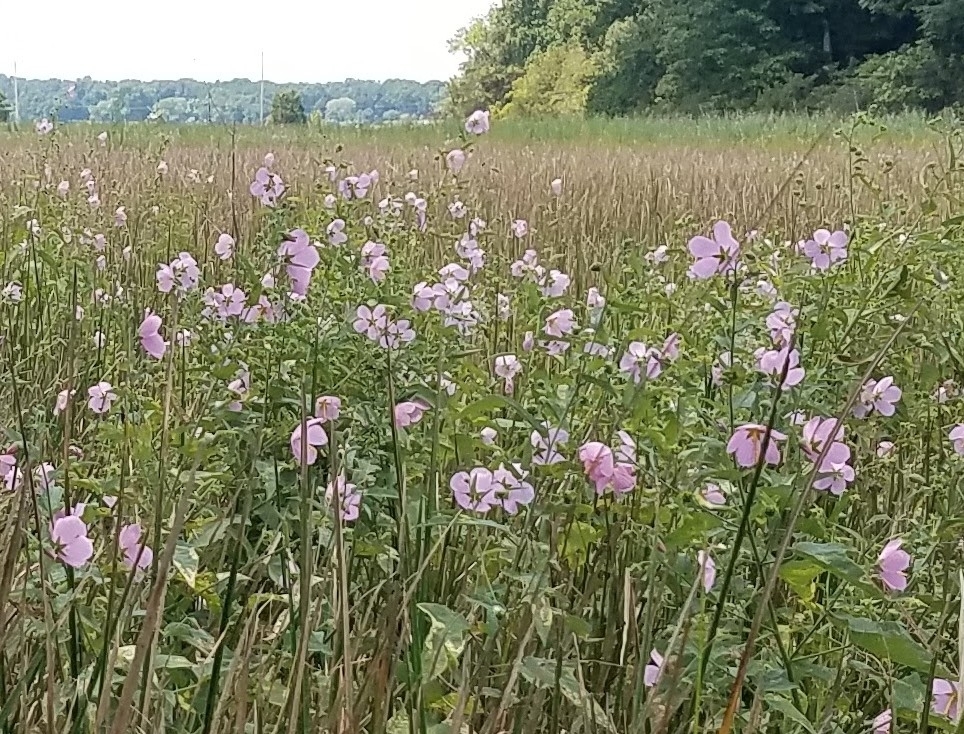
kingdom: Plantae
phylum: Tracheophyta
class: Magnoliopsida
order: Malvales
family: Malvaceae
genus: Kosteletzkya
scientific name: Kosteletzkya pentacarpos
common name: Virginia saltmarsh mallow
